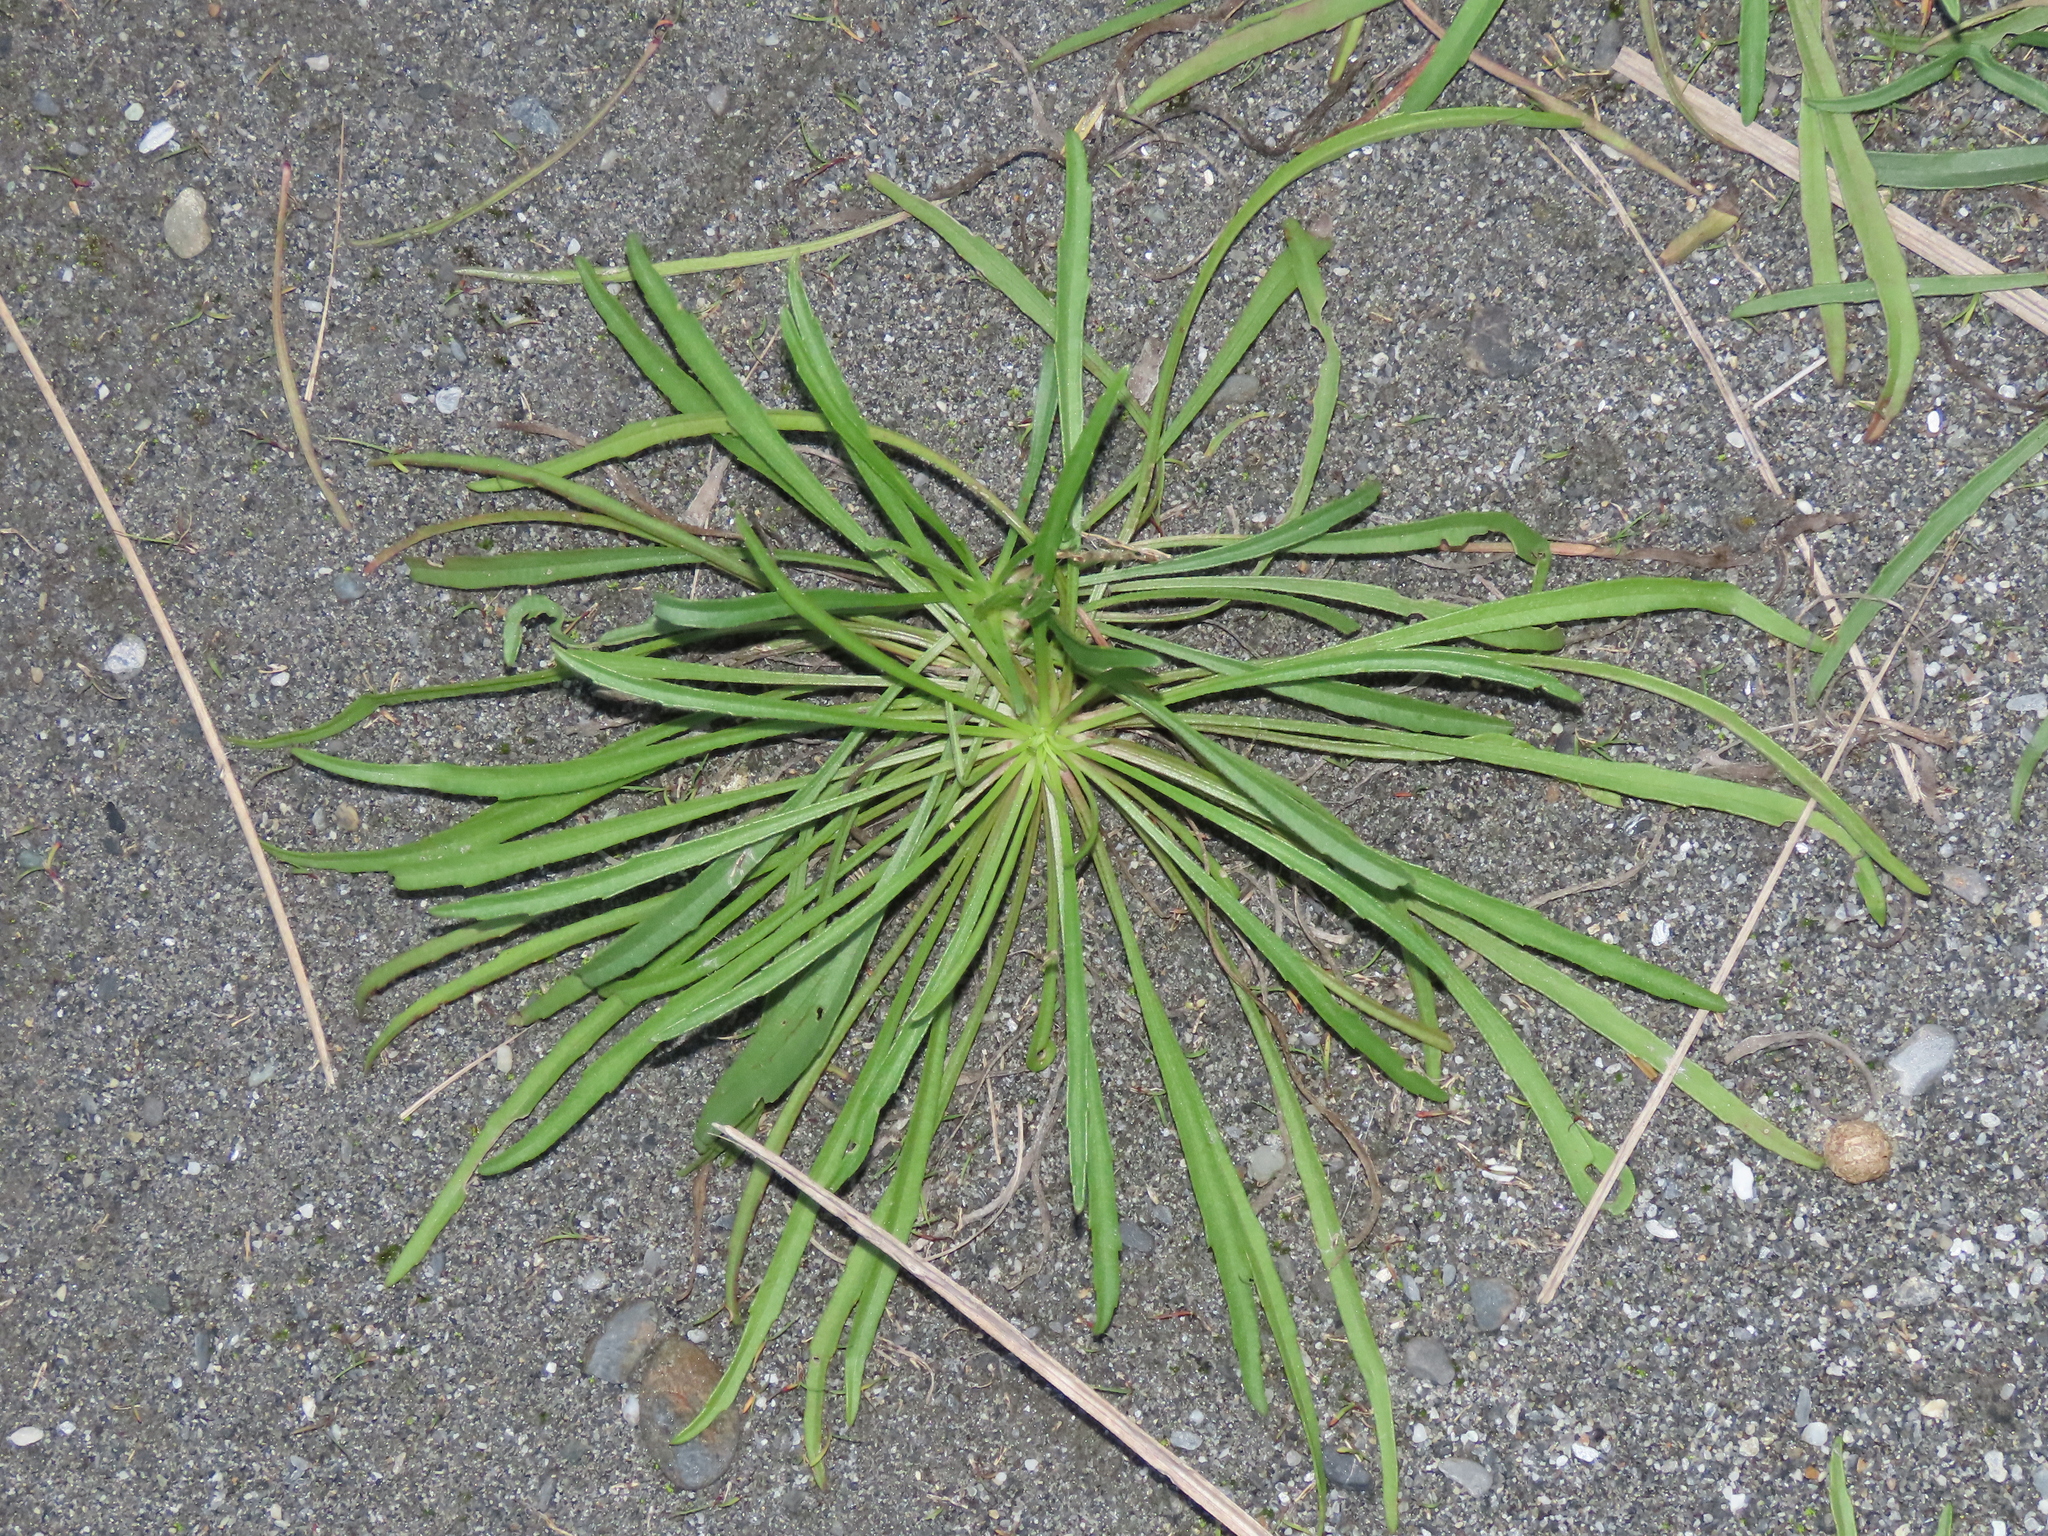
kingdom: Plantae
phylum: Tracheophyta
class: Magnoliopsida
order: Asterales
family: Asteraceae
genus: Heteropappus
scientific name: Heteropappus altaicus
